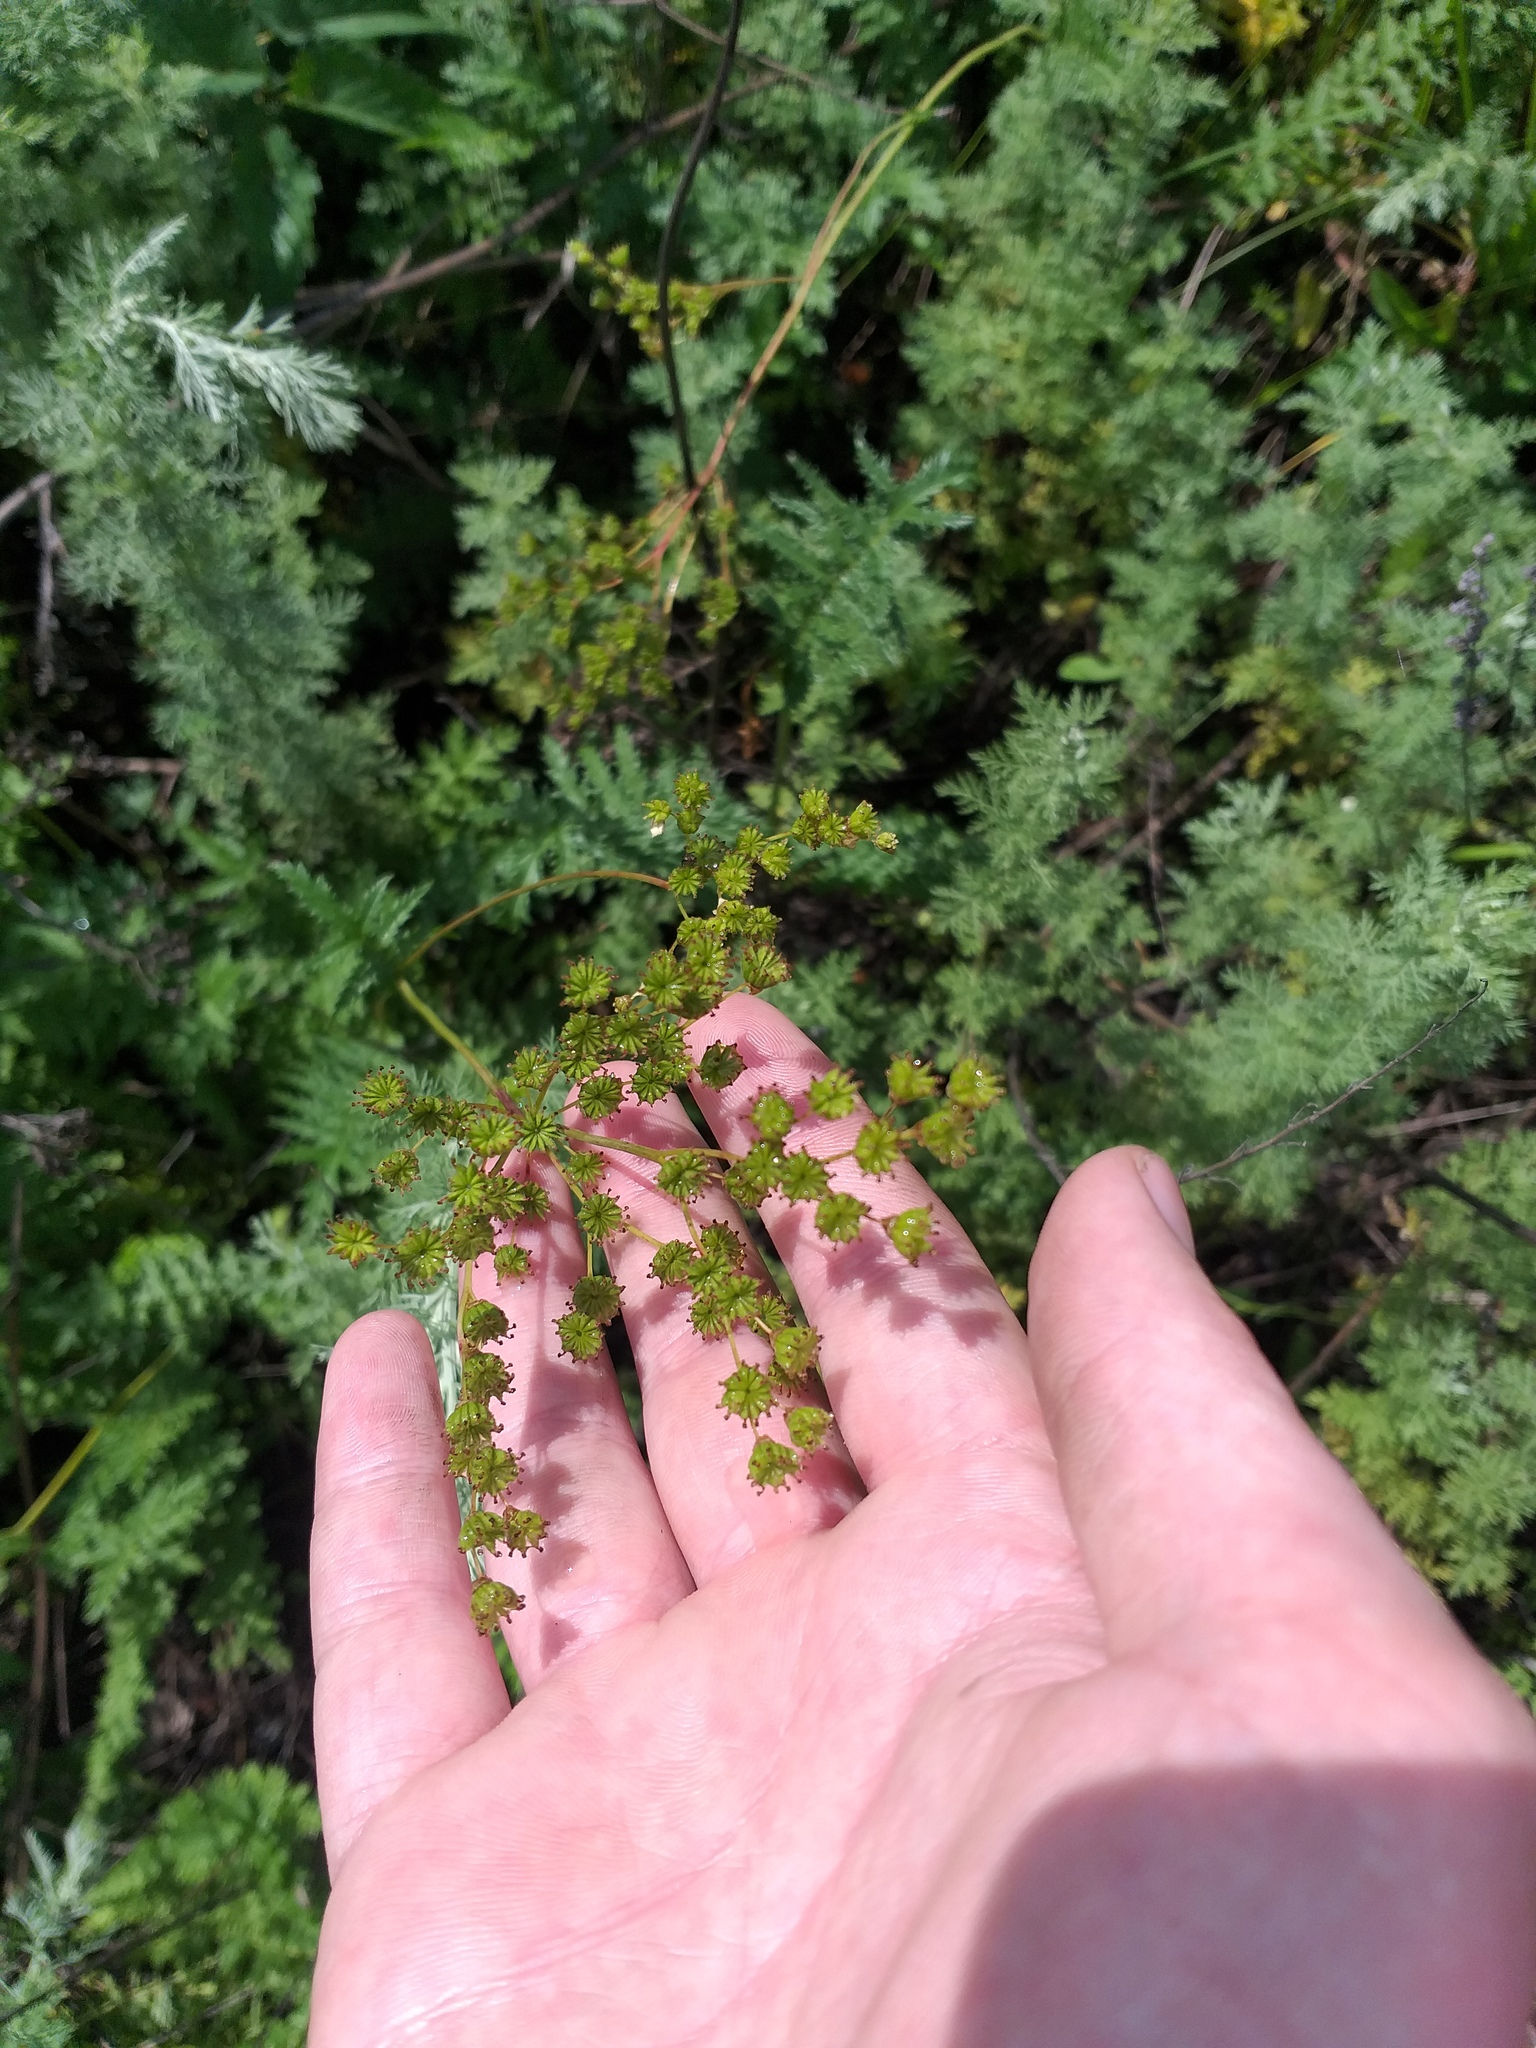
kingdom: Plantae
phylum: Tracheophyta
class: Magnoliopsida
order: Rosales
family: Rosaceae
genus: Filipendula
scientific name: Filipendula vulgaris
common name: Dropwort
